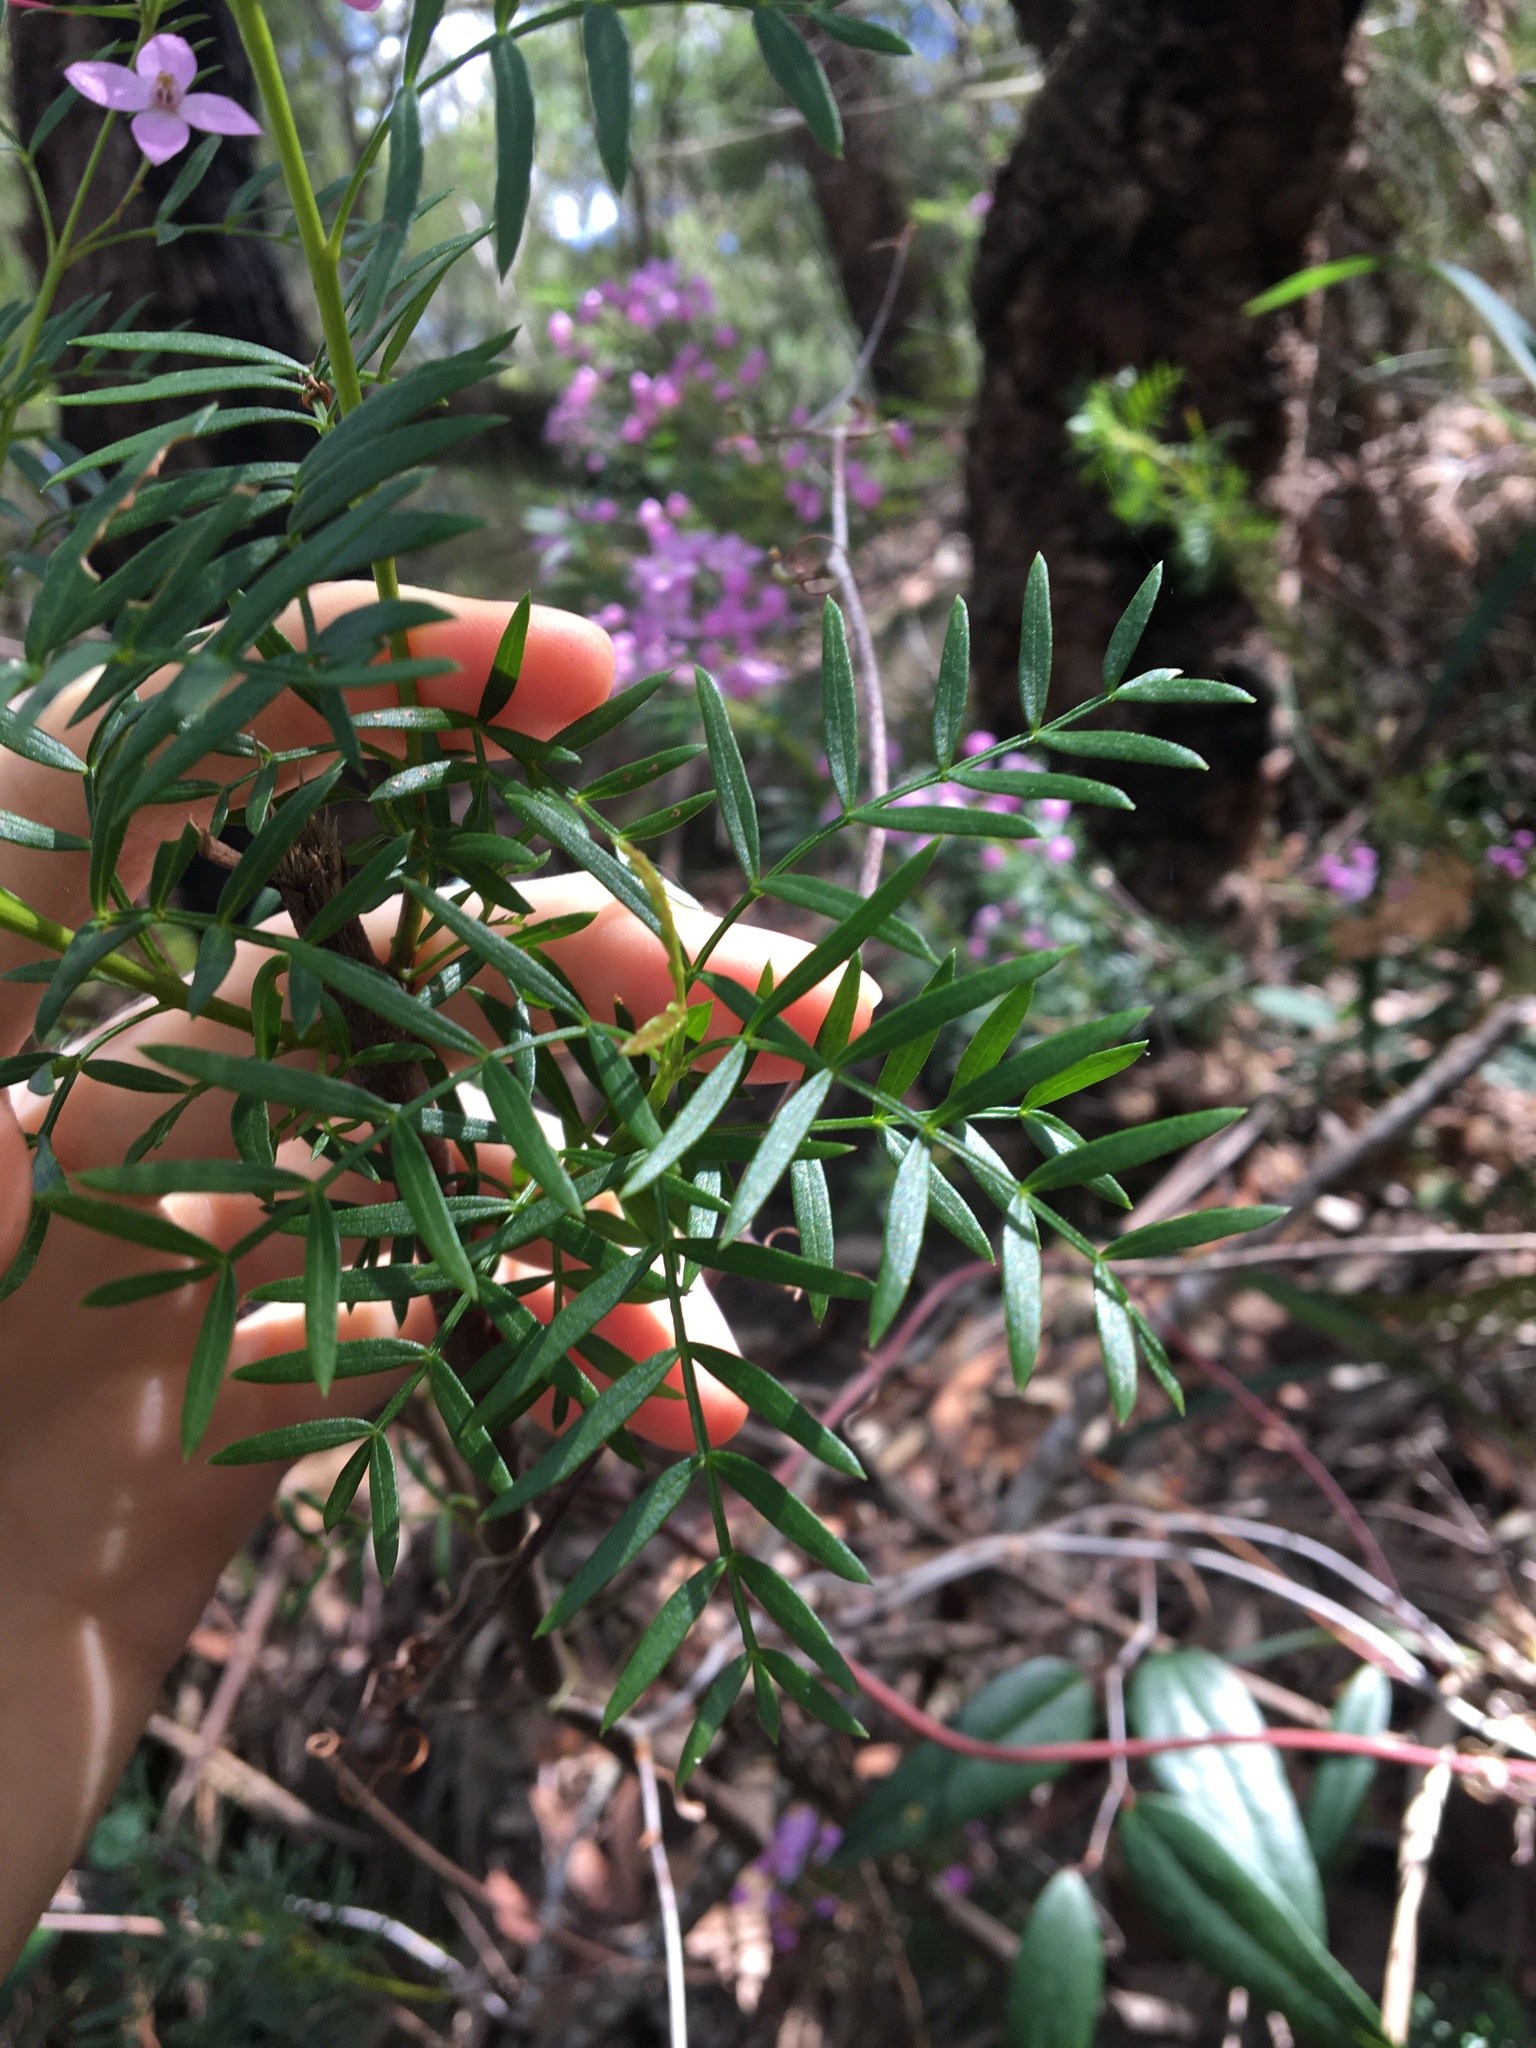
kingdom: Plantae
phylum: Tracheophyta
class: Magnoliopsida
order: Sapindales
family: Rutaceae
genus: Boronia
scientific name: Boronia pinnata
